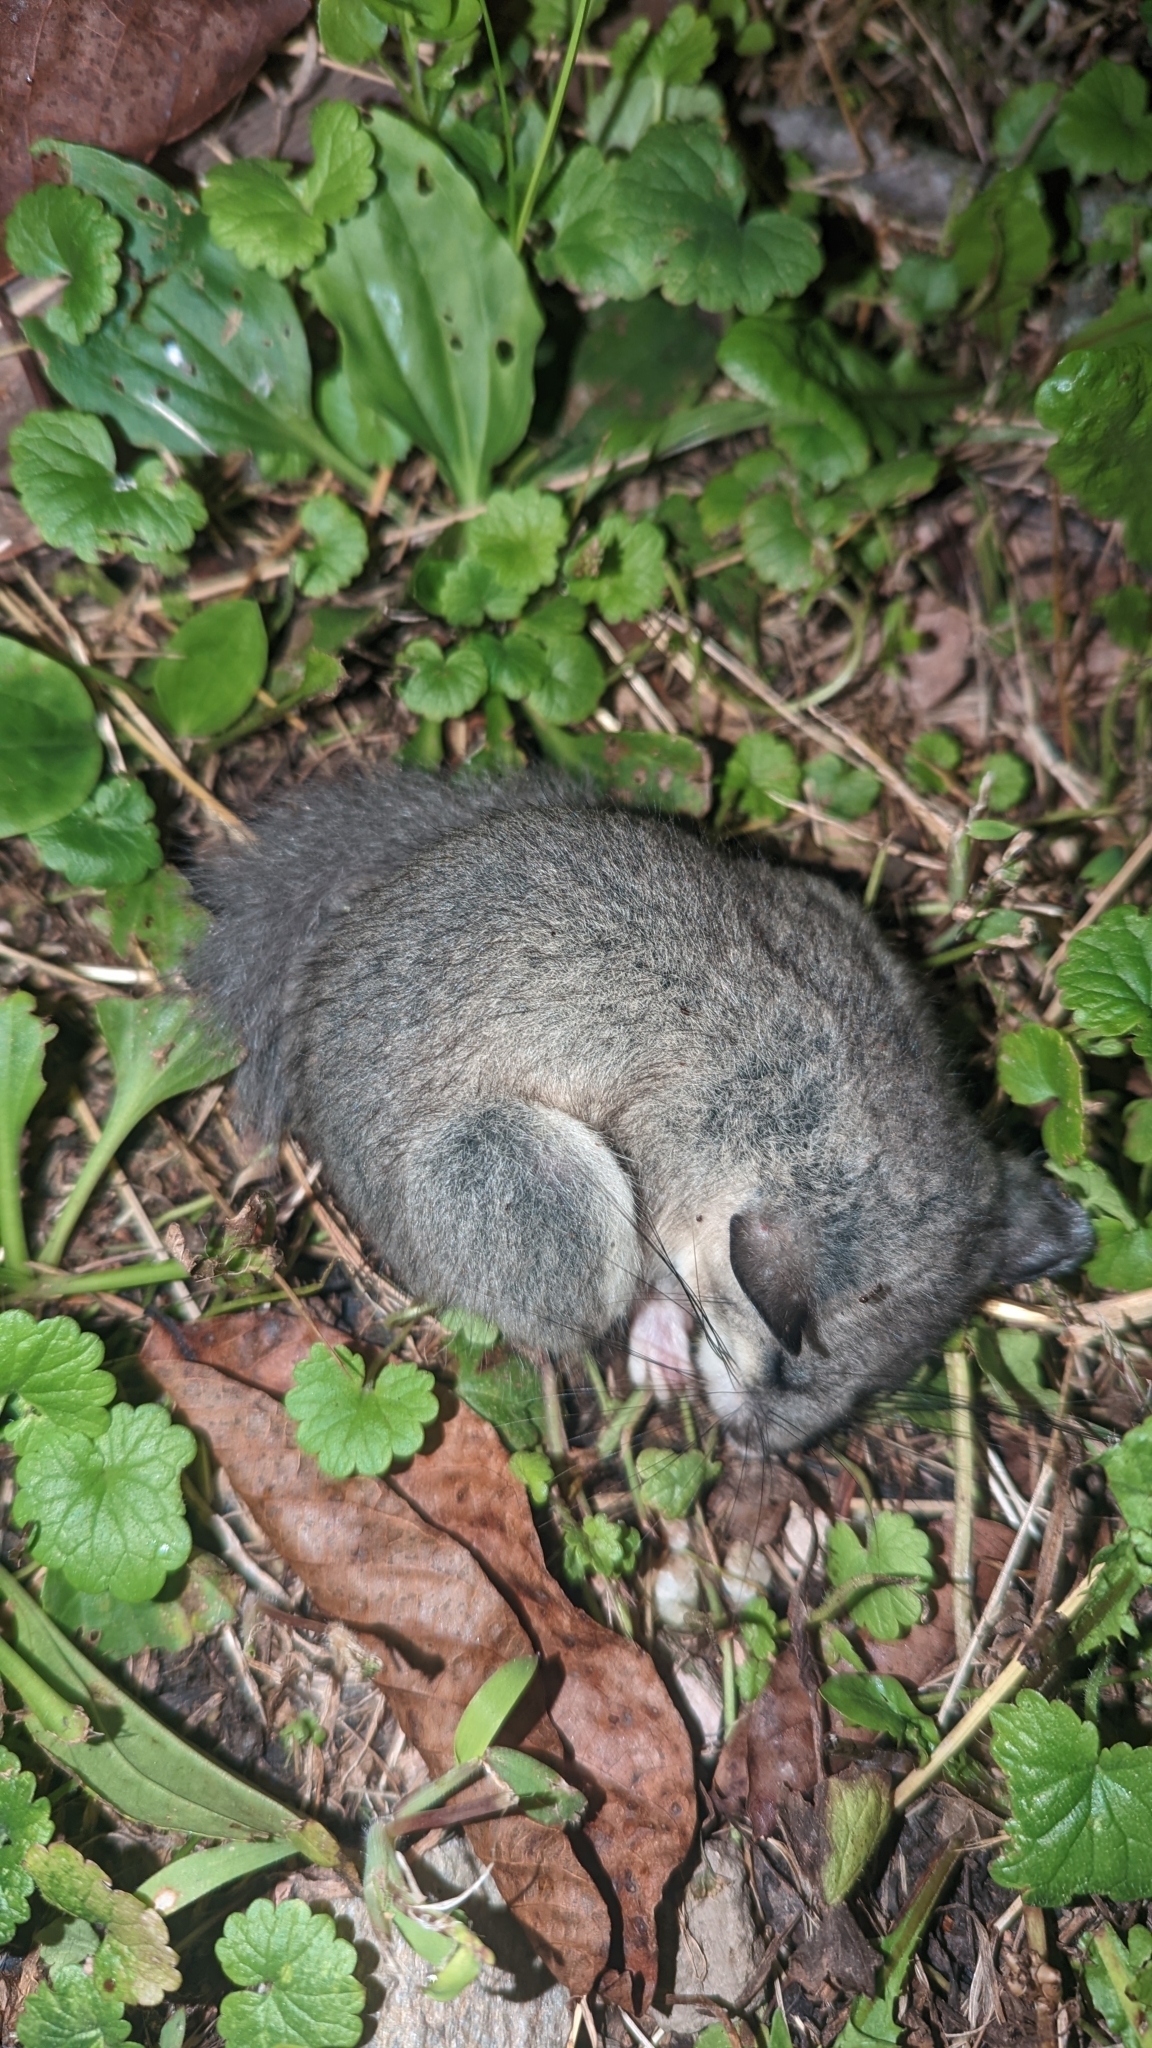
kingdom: Animalia
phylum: Chordata
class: Mammalia
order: Rodentia
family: Gliridae
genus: Glis
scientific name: Glis glis
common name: Fat dormouse
